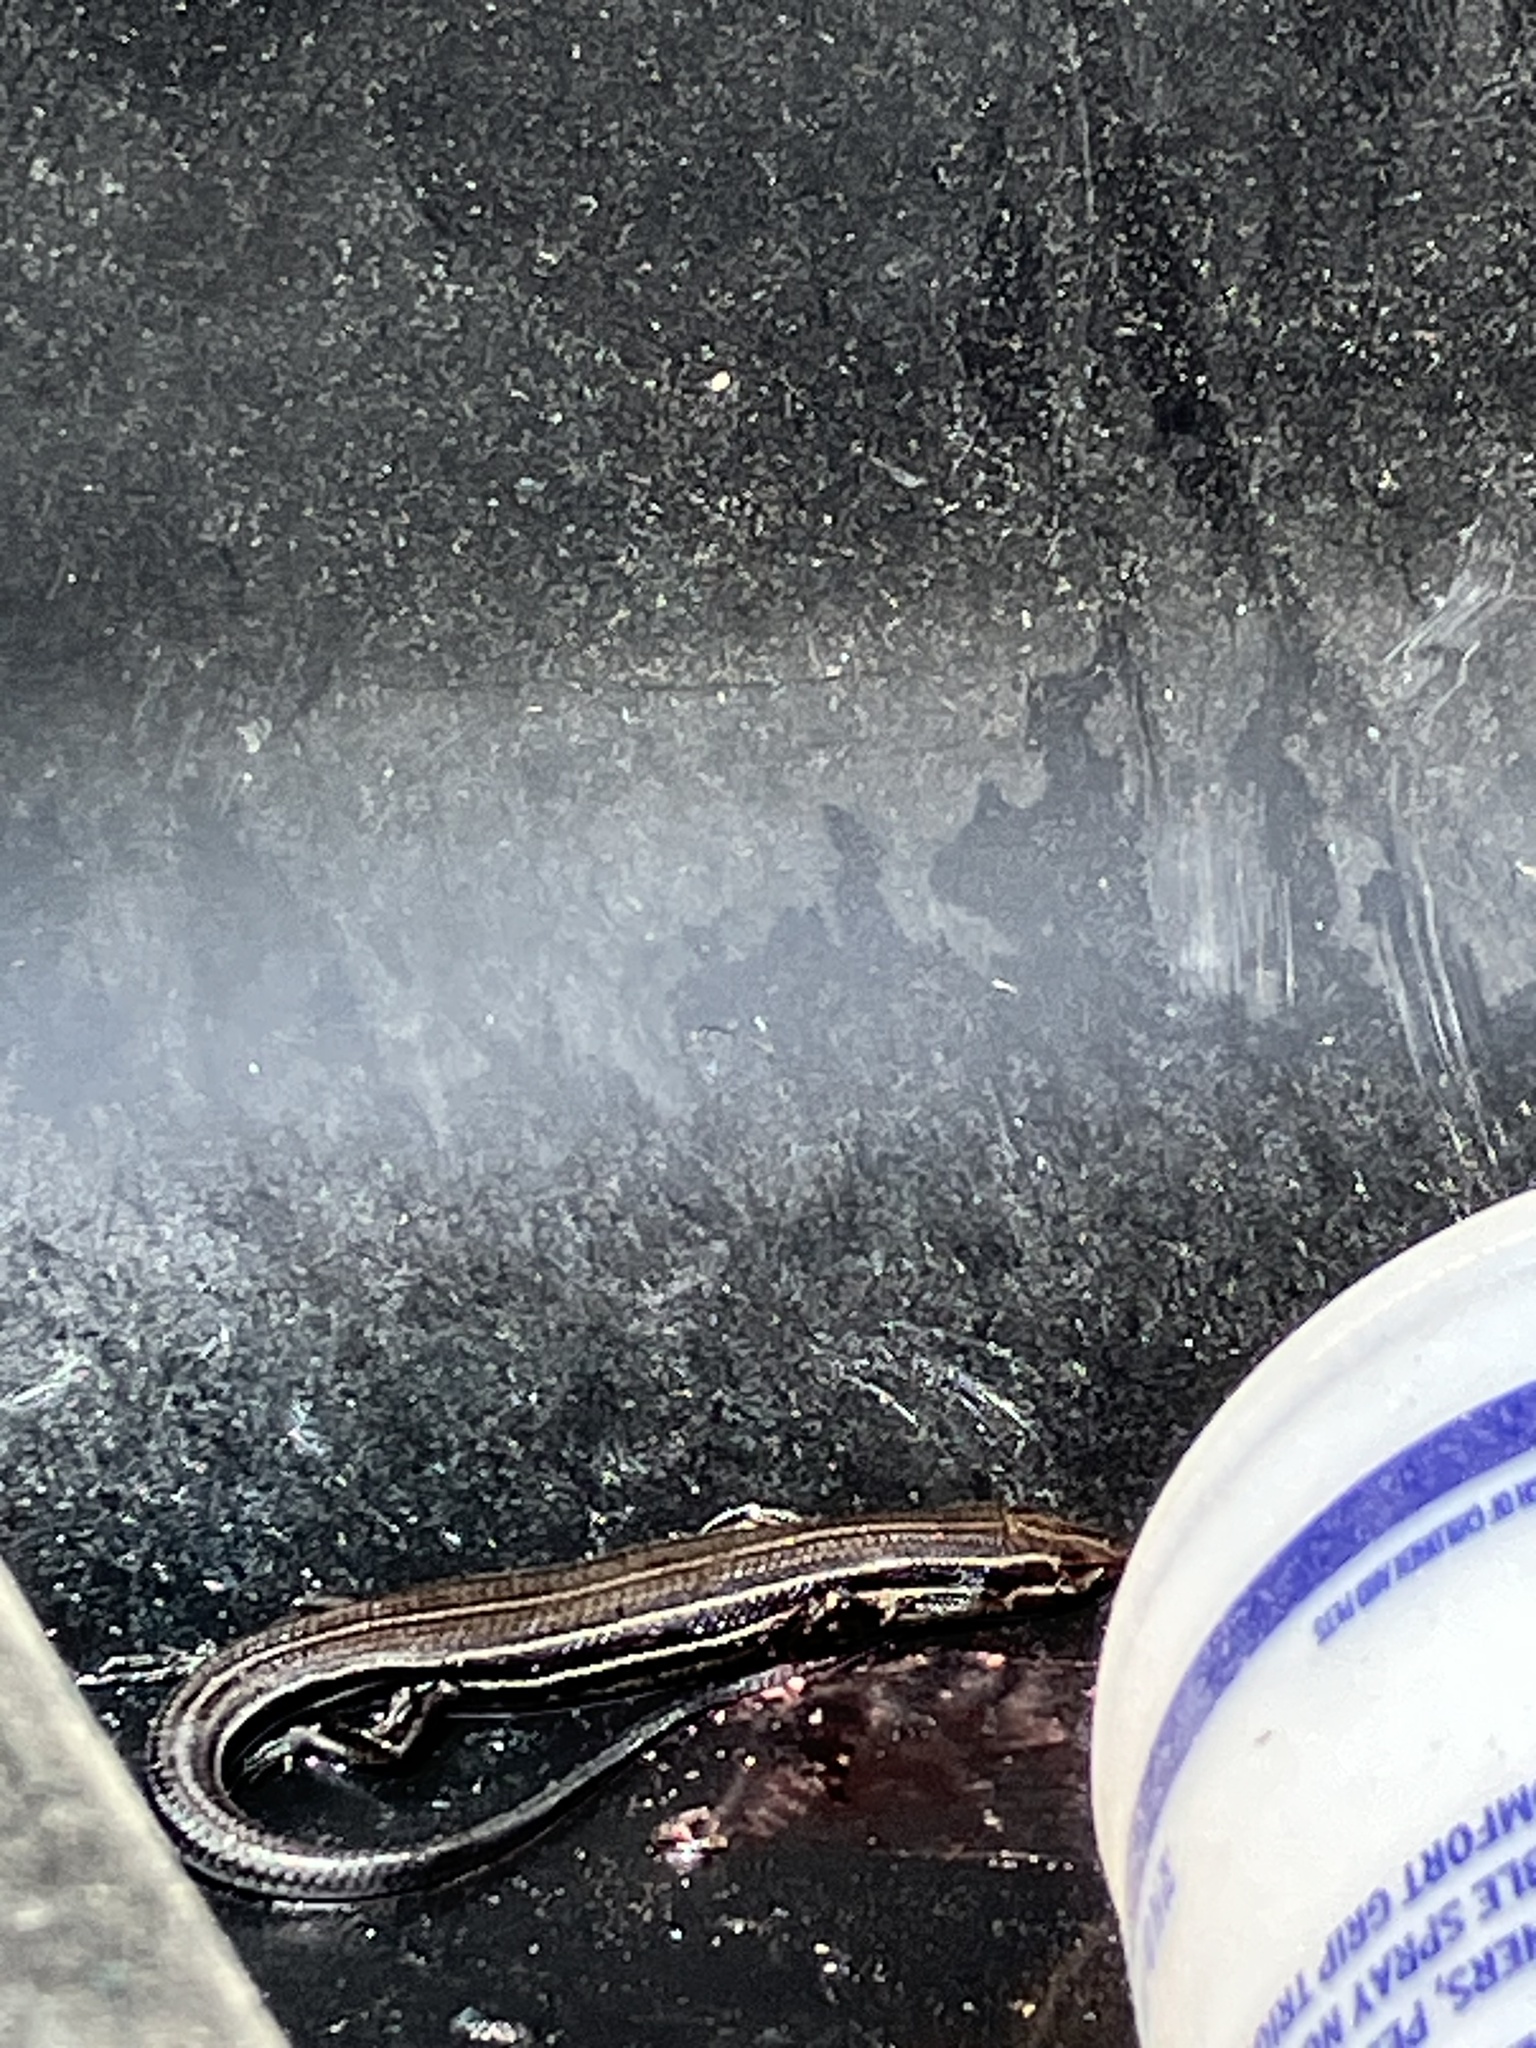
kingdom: Animalia
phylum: Chordata
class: Squamata
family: Scincidae
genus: Plestiodon
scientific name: Plestiodon inexpectatus
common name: Southeastern five-lined skink
